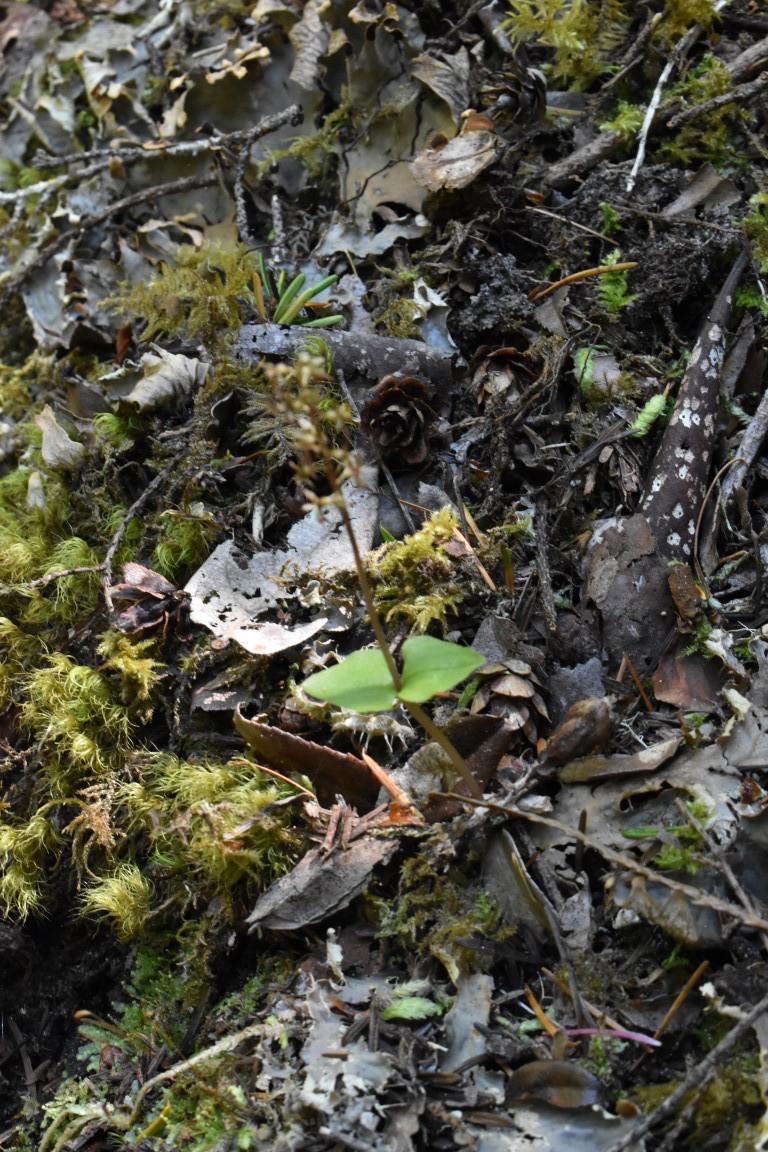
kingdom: Plantae
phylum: Tracheophyta
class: Liliopsida
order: Asparagales
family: Orchidaceae
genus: Neottia
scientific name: Neottia cordata
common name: Lesser twayblade
